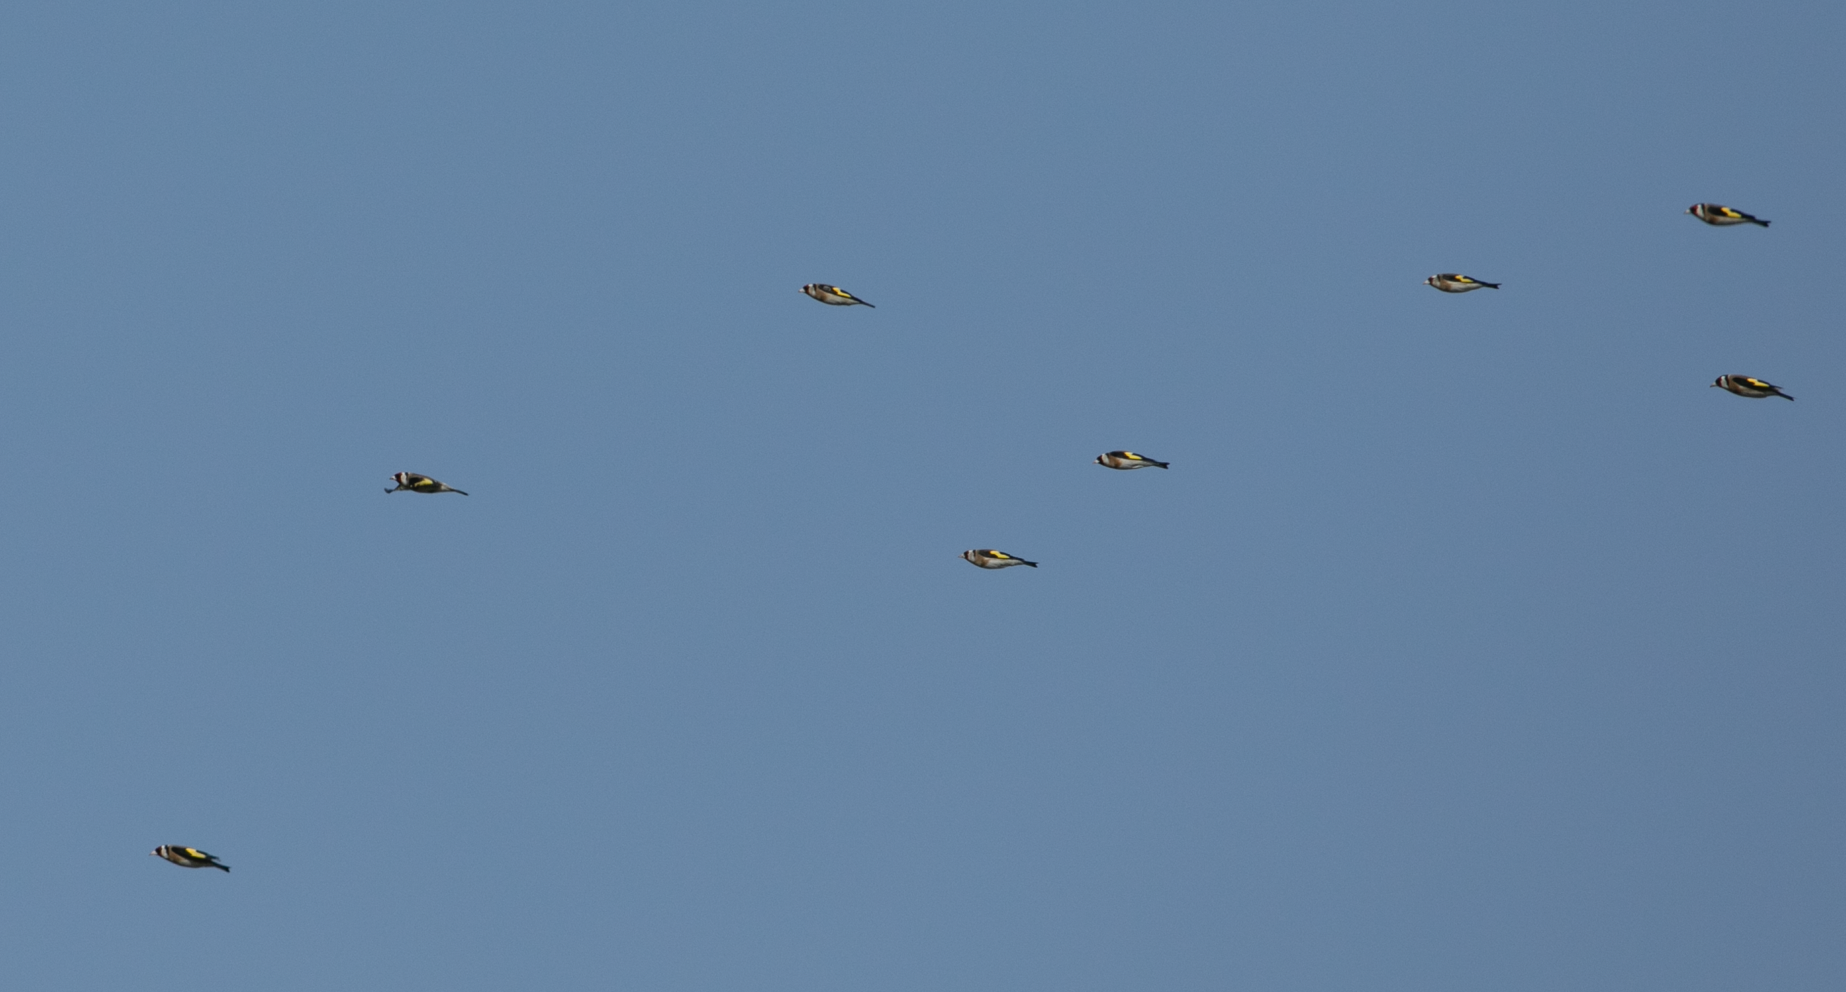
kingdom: Animalia
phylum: Chordata
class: Aves
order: Passeriformes
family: Fringillidae
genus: Carduelis
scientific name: Carduelis carduelis
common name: European goldfinch
